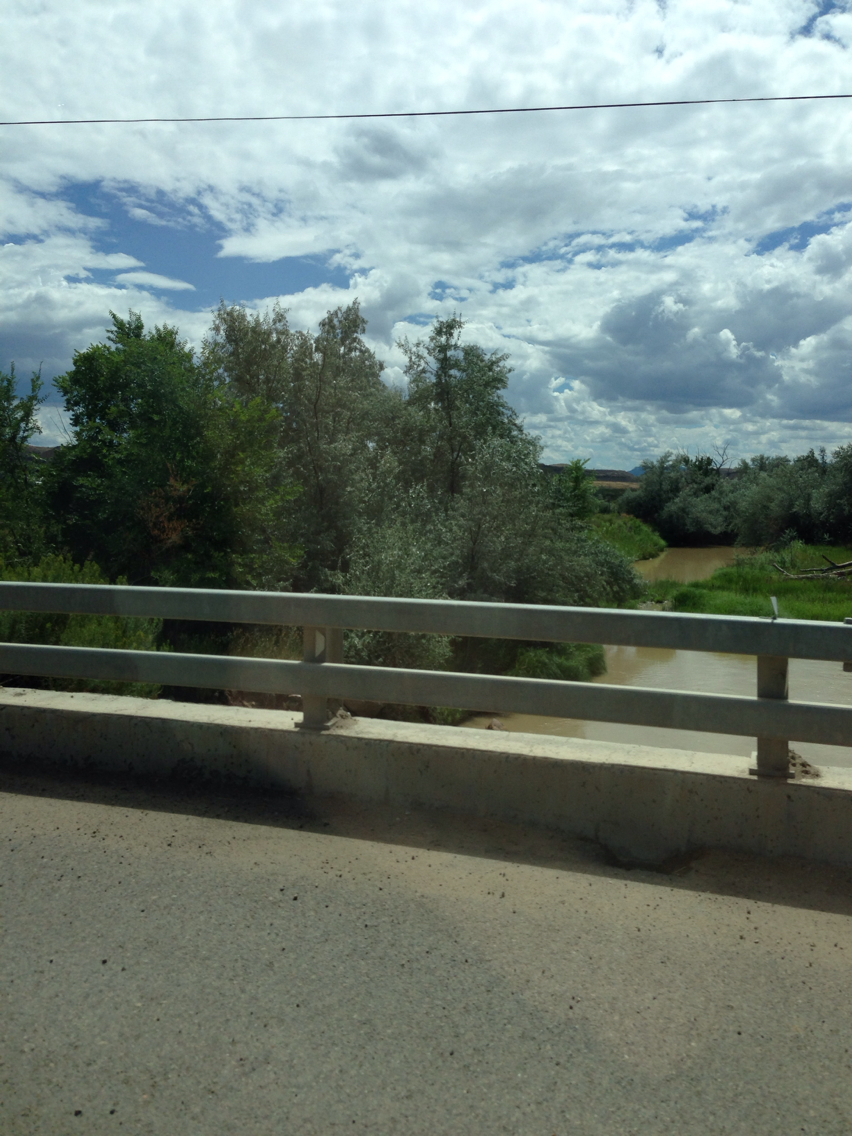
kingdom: Plantae
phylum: Tracheophyta
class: Magnoliopsida
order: Rosales
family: Elaeagnaceae
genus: Elaeagnus
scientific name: Elaeagnus angustifolia
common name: Russian olive
